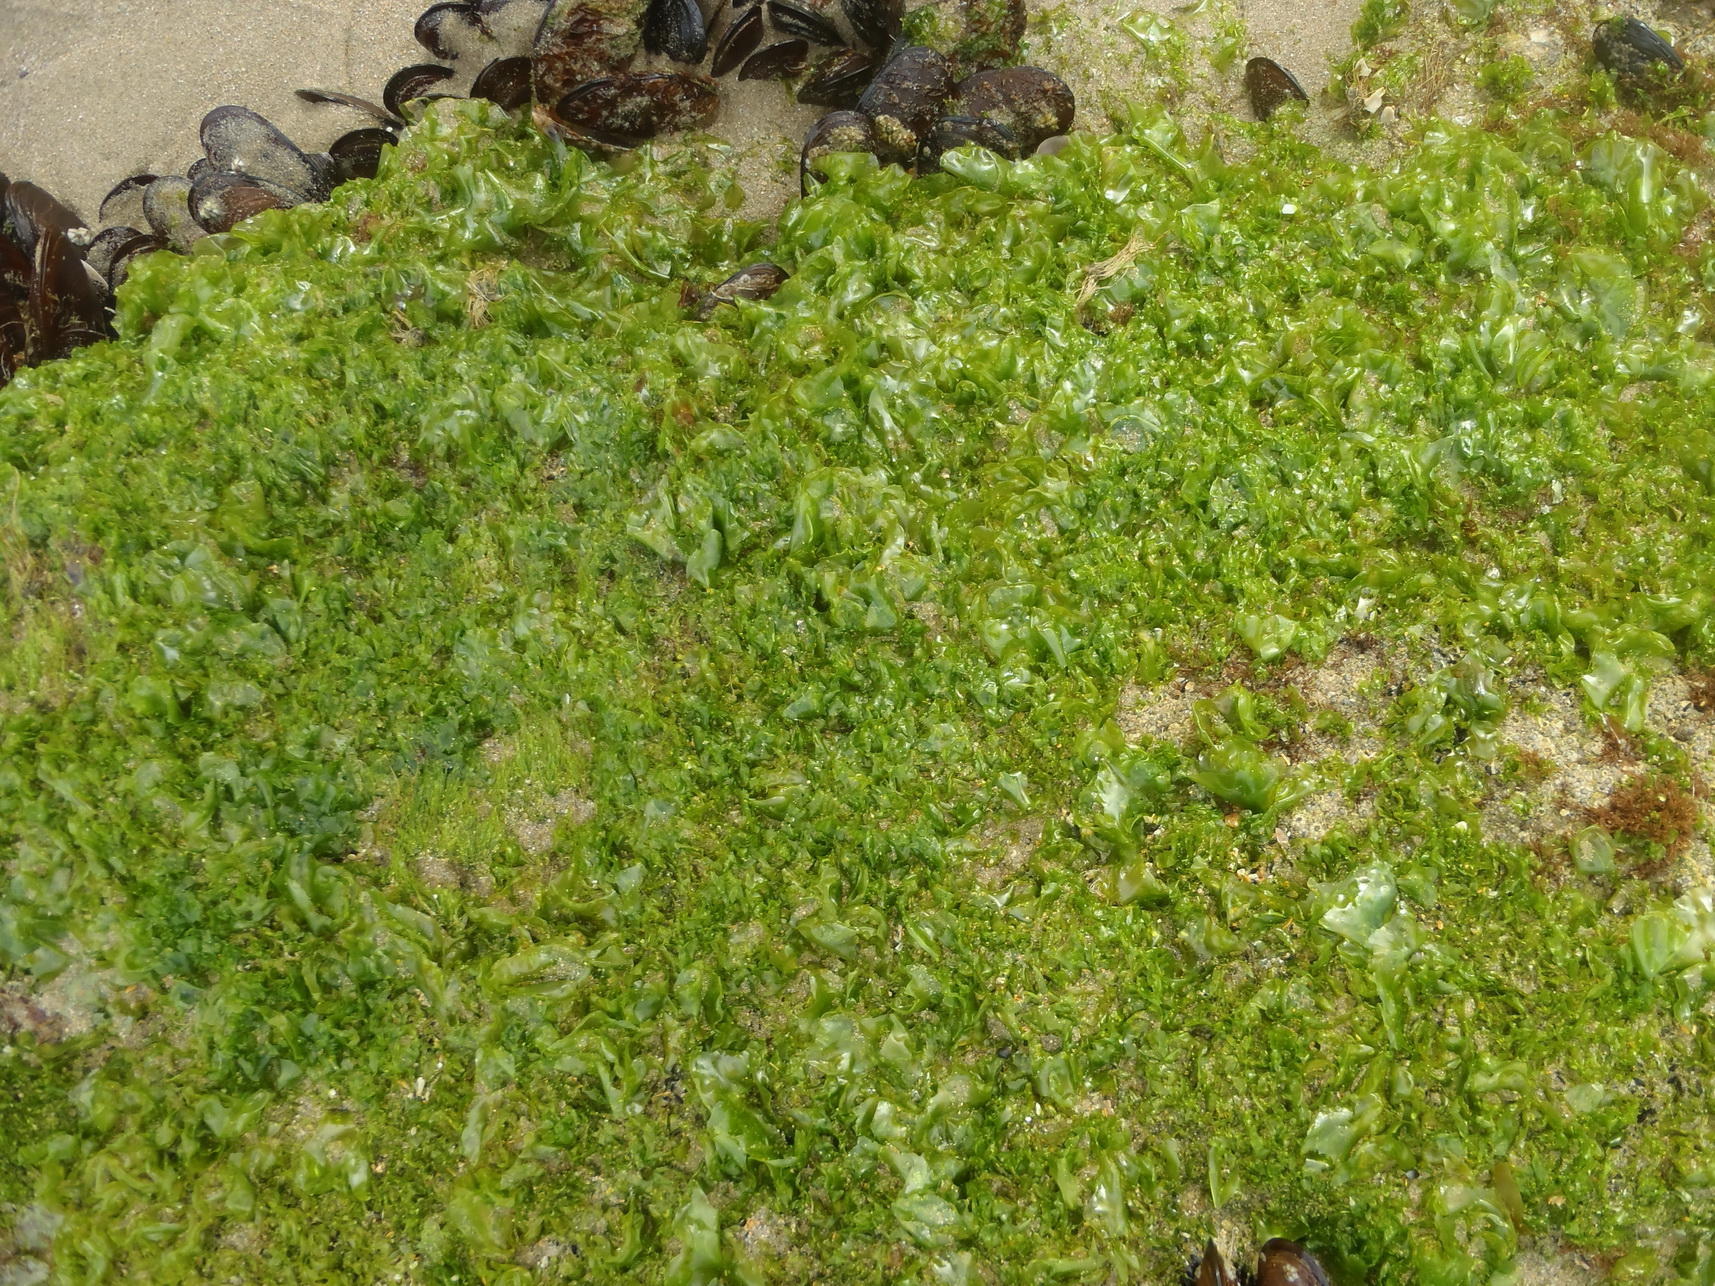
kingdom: Plantae
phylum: Chlorophyta
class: Ulvophyceae
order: Ulvales
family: Ulvaceae
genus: Ulva
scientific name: Ulva rigida
